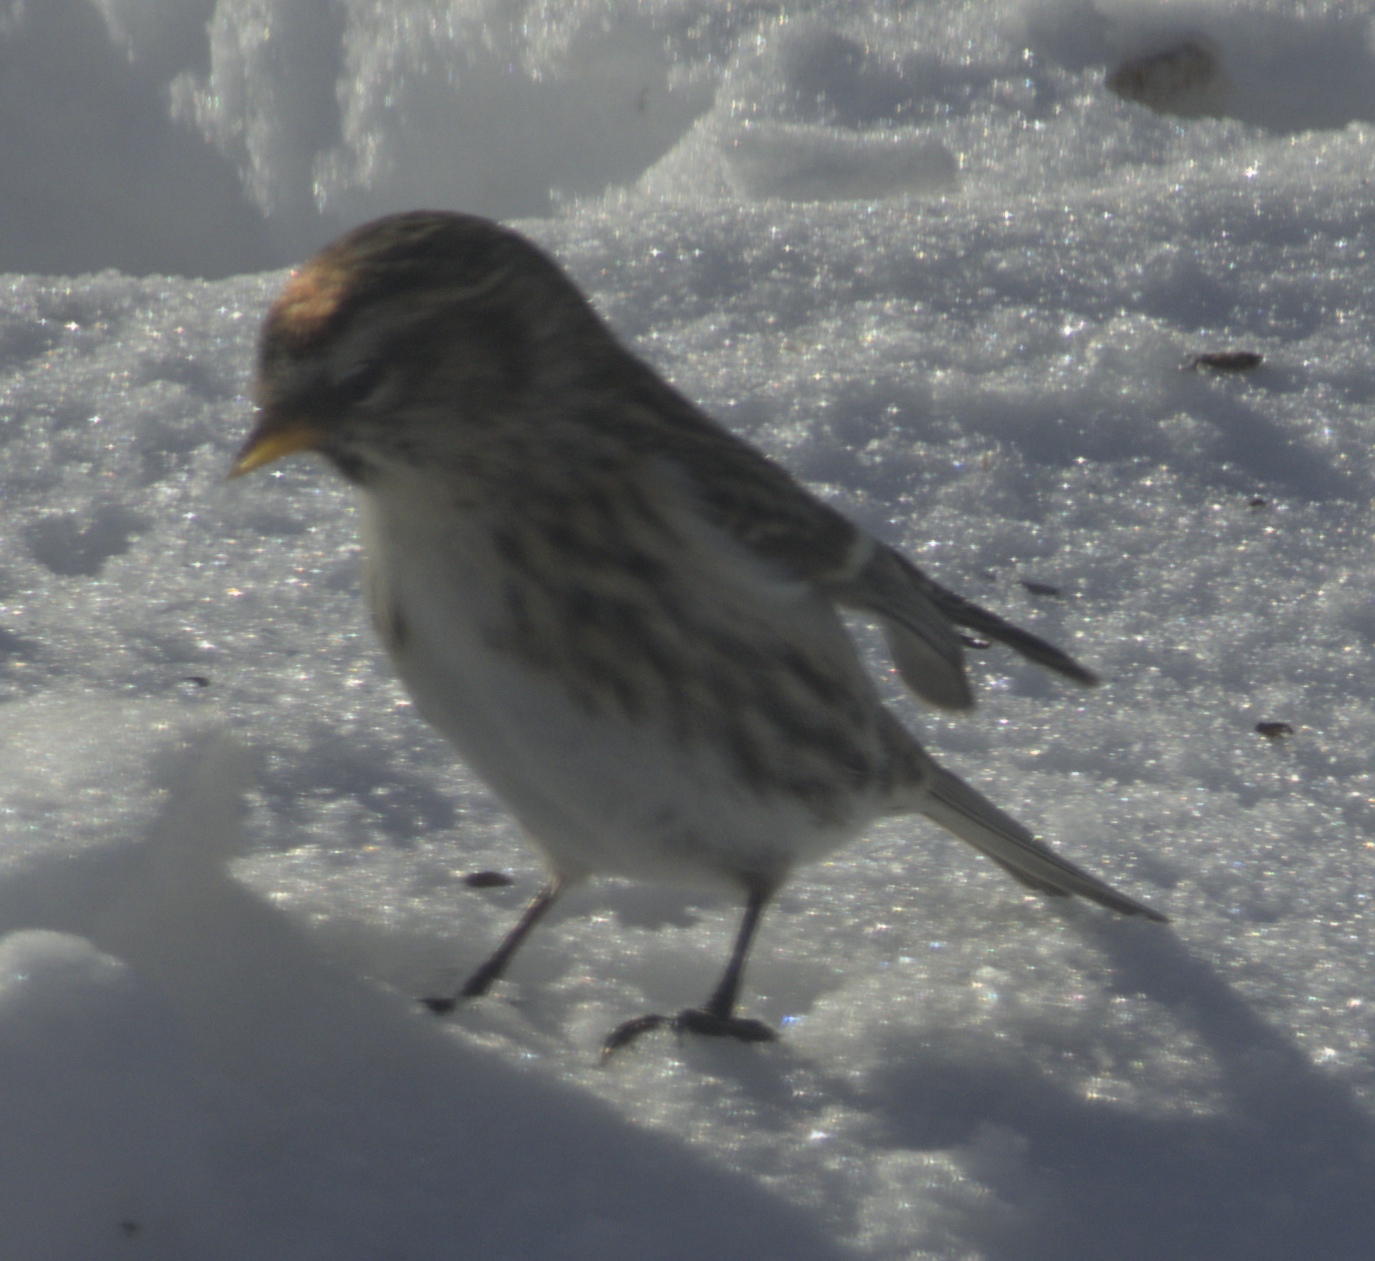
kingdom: Animalia
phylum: Chordata
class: Aves
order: Passeriformes
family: Fringillidae
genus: Acanthis
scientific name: Acanthis flammea
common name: Common redpoll
